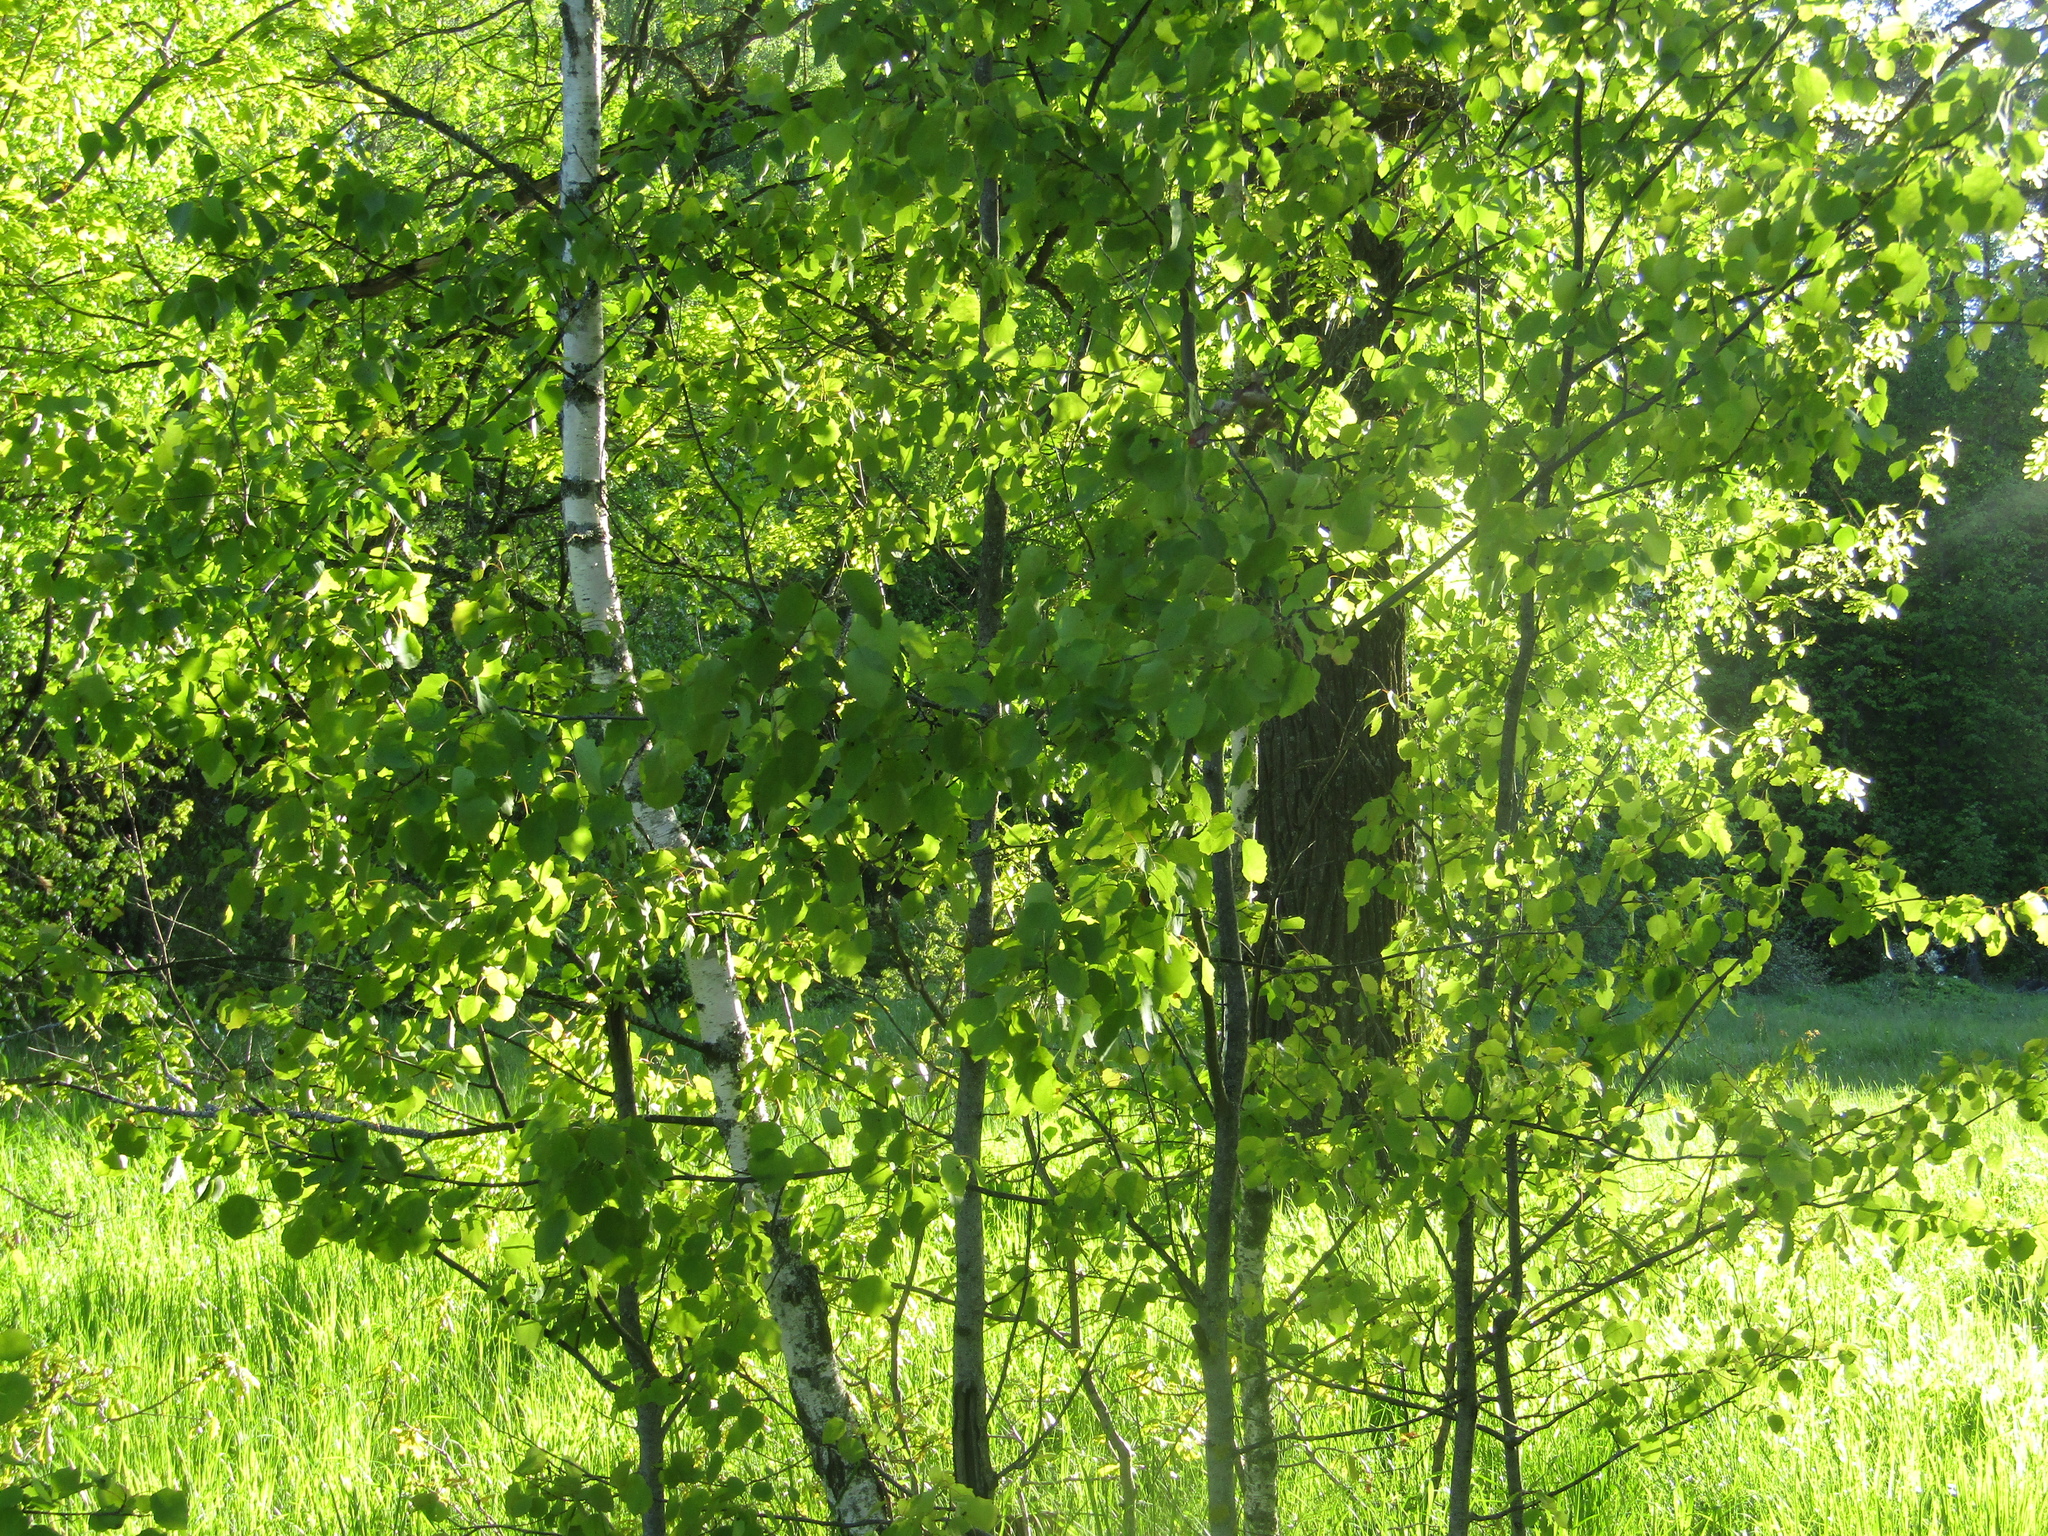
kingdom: Plantae
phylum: Tracheophyta
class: Magnoliopsida
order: Malpighiales
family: Salicaceae
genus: Populus
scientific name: Populus tremula
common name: European aspen
